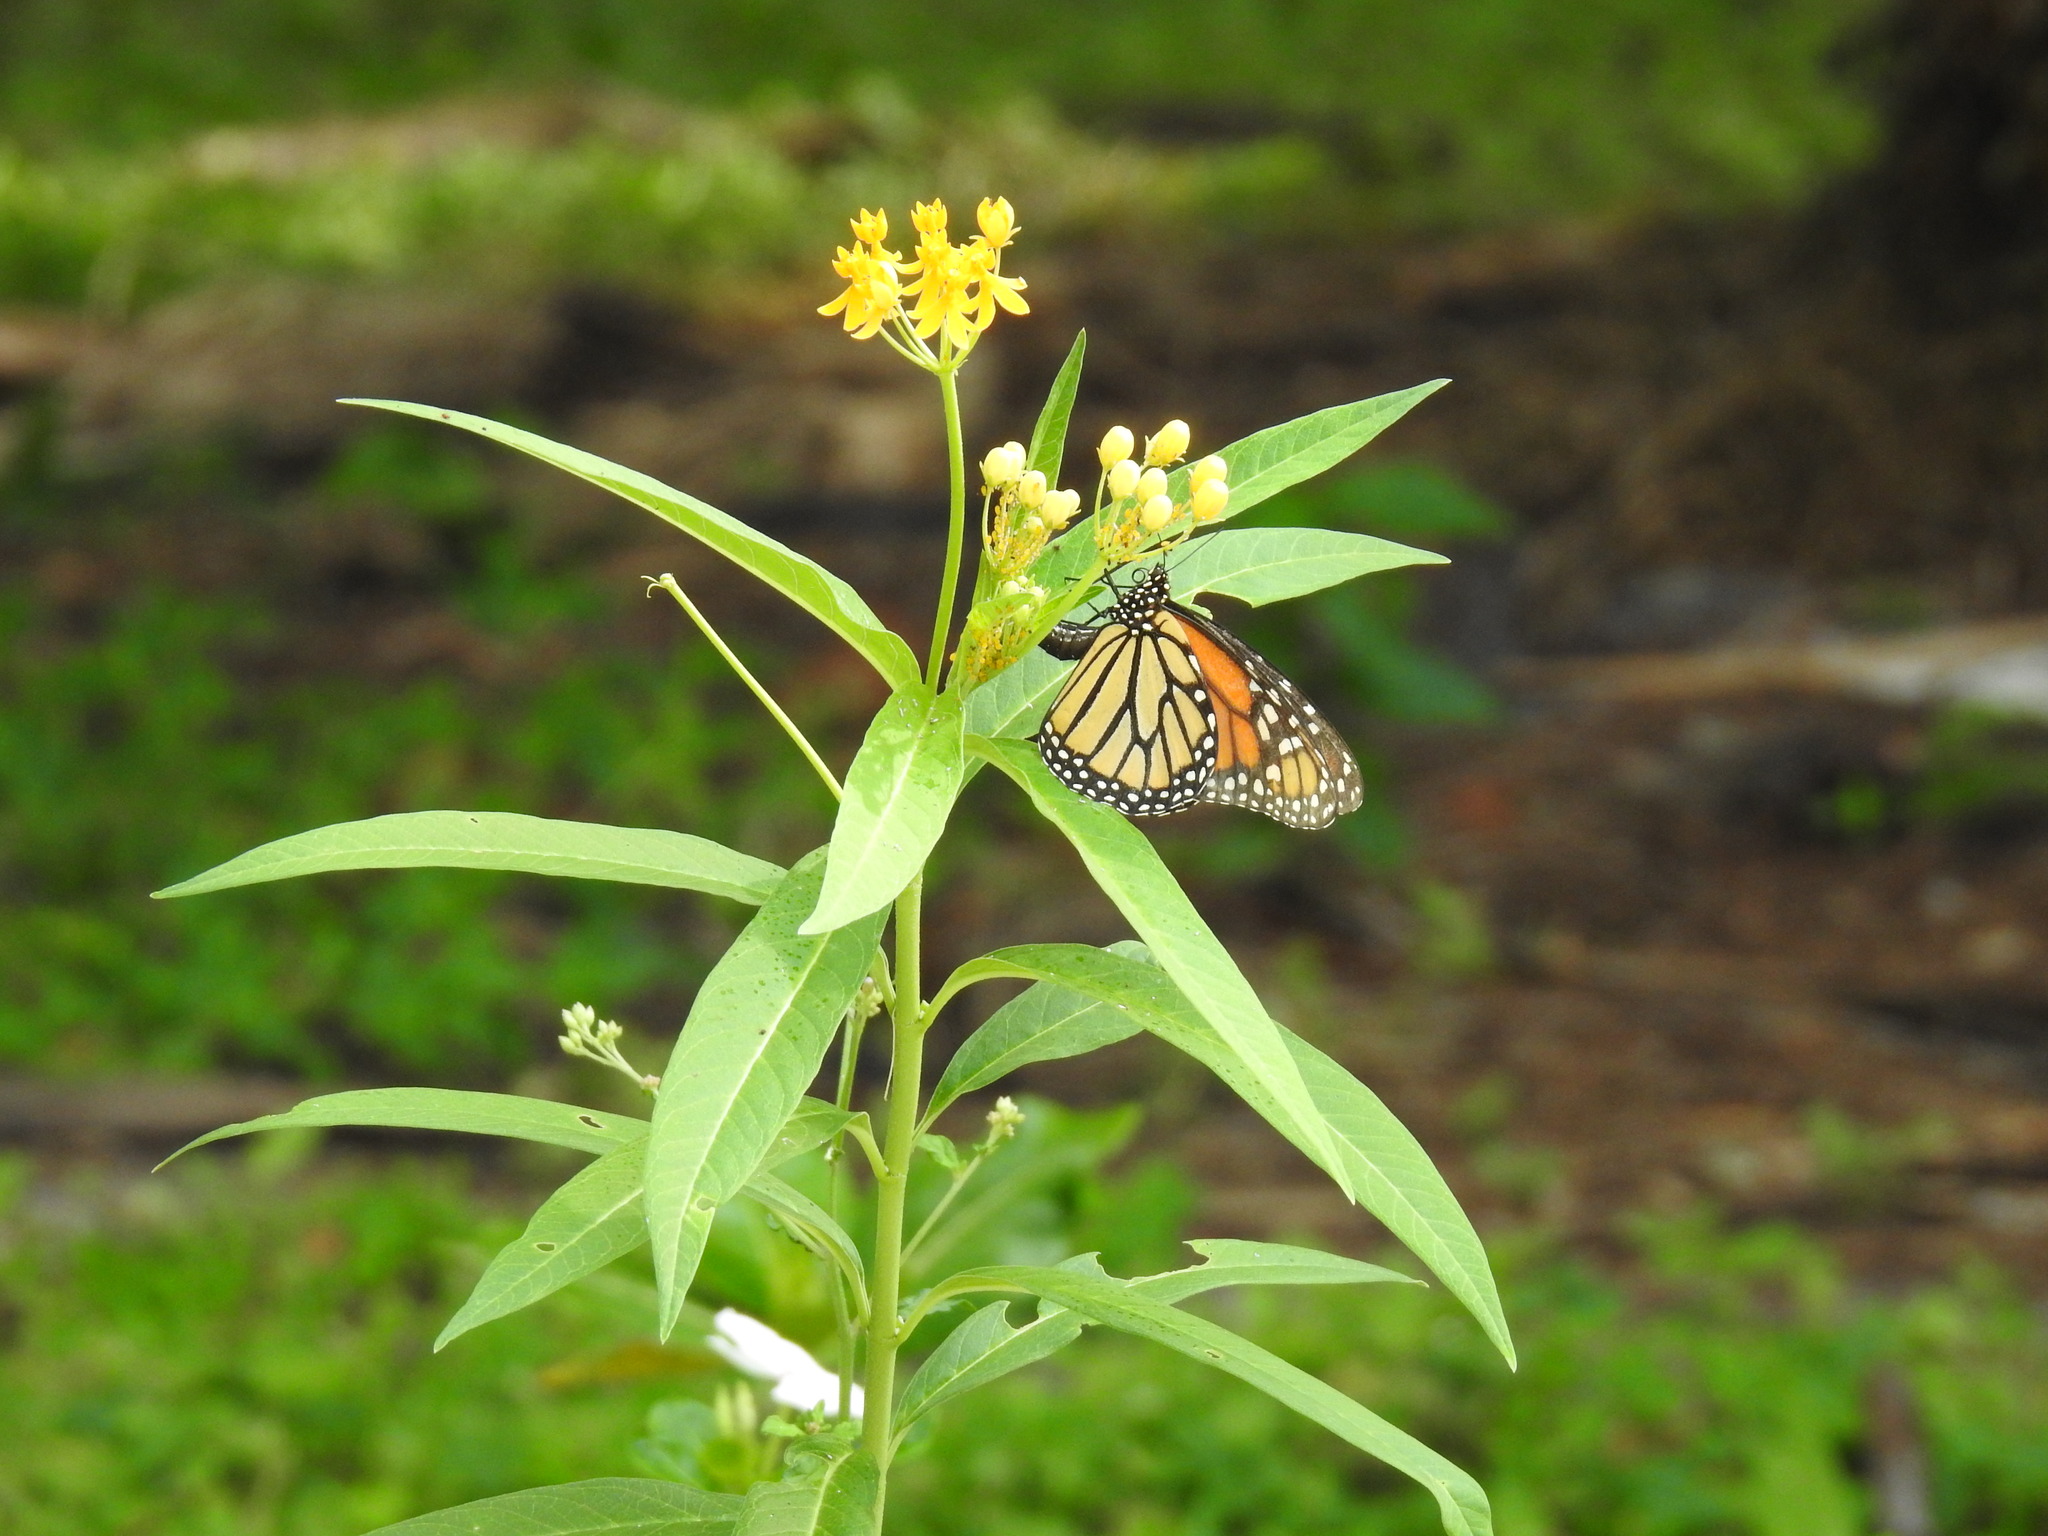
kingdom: Animalia
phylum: Arthropoda
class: Insecta
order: Lepidoptera
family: Nymphalidae
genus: Danaus
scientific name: Danaus plexippus
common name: Monarch
